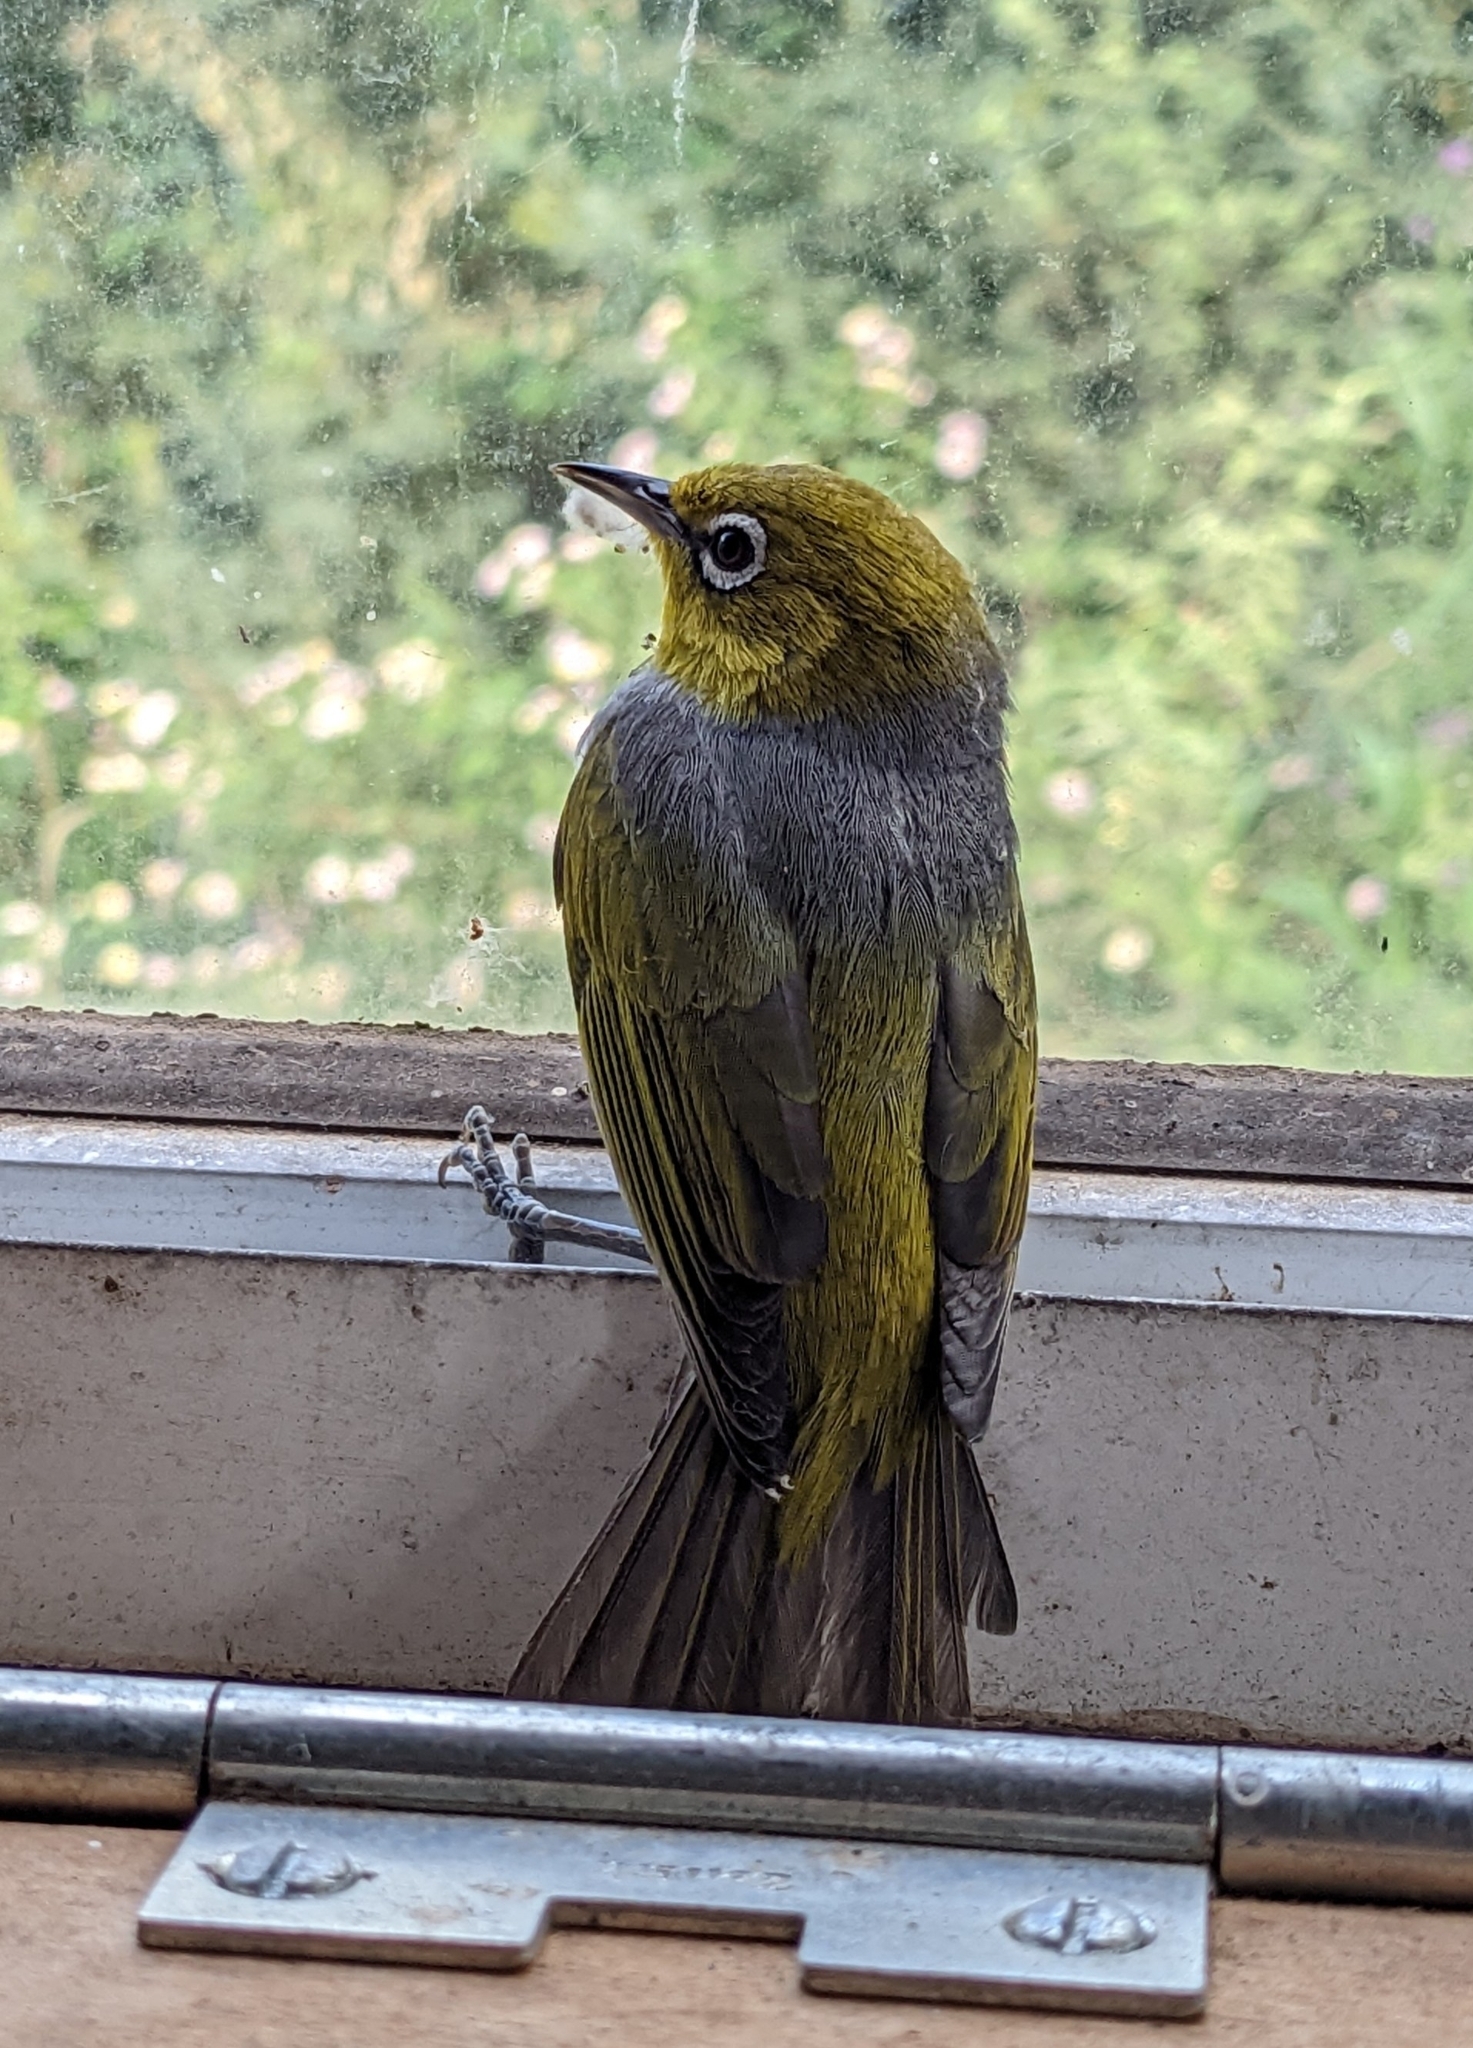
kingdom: Animalia
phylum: Chordata
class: Aves
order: Passeriformes
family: Zosteropidae
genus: Zosterops
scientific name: Zosterops lateralis
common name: Silvereye
